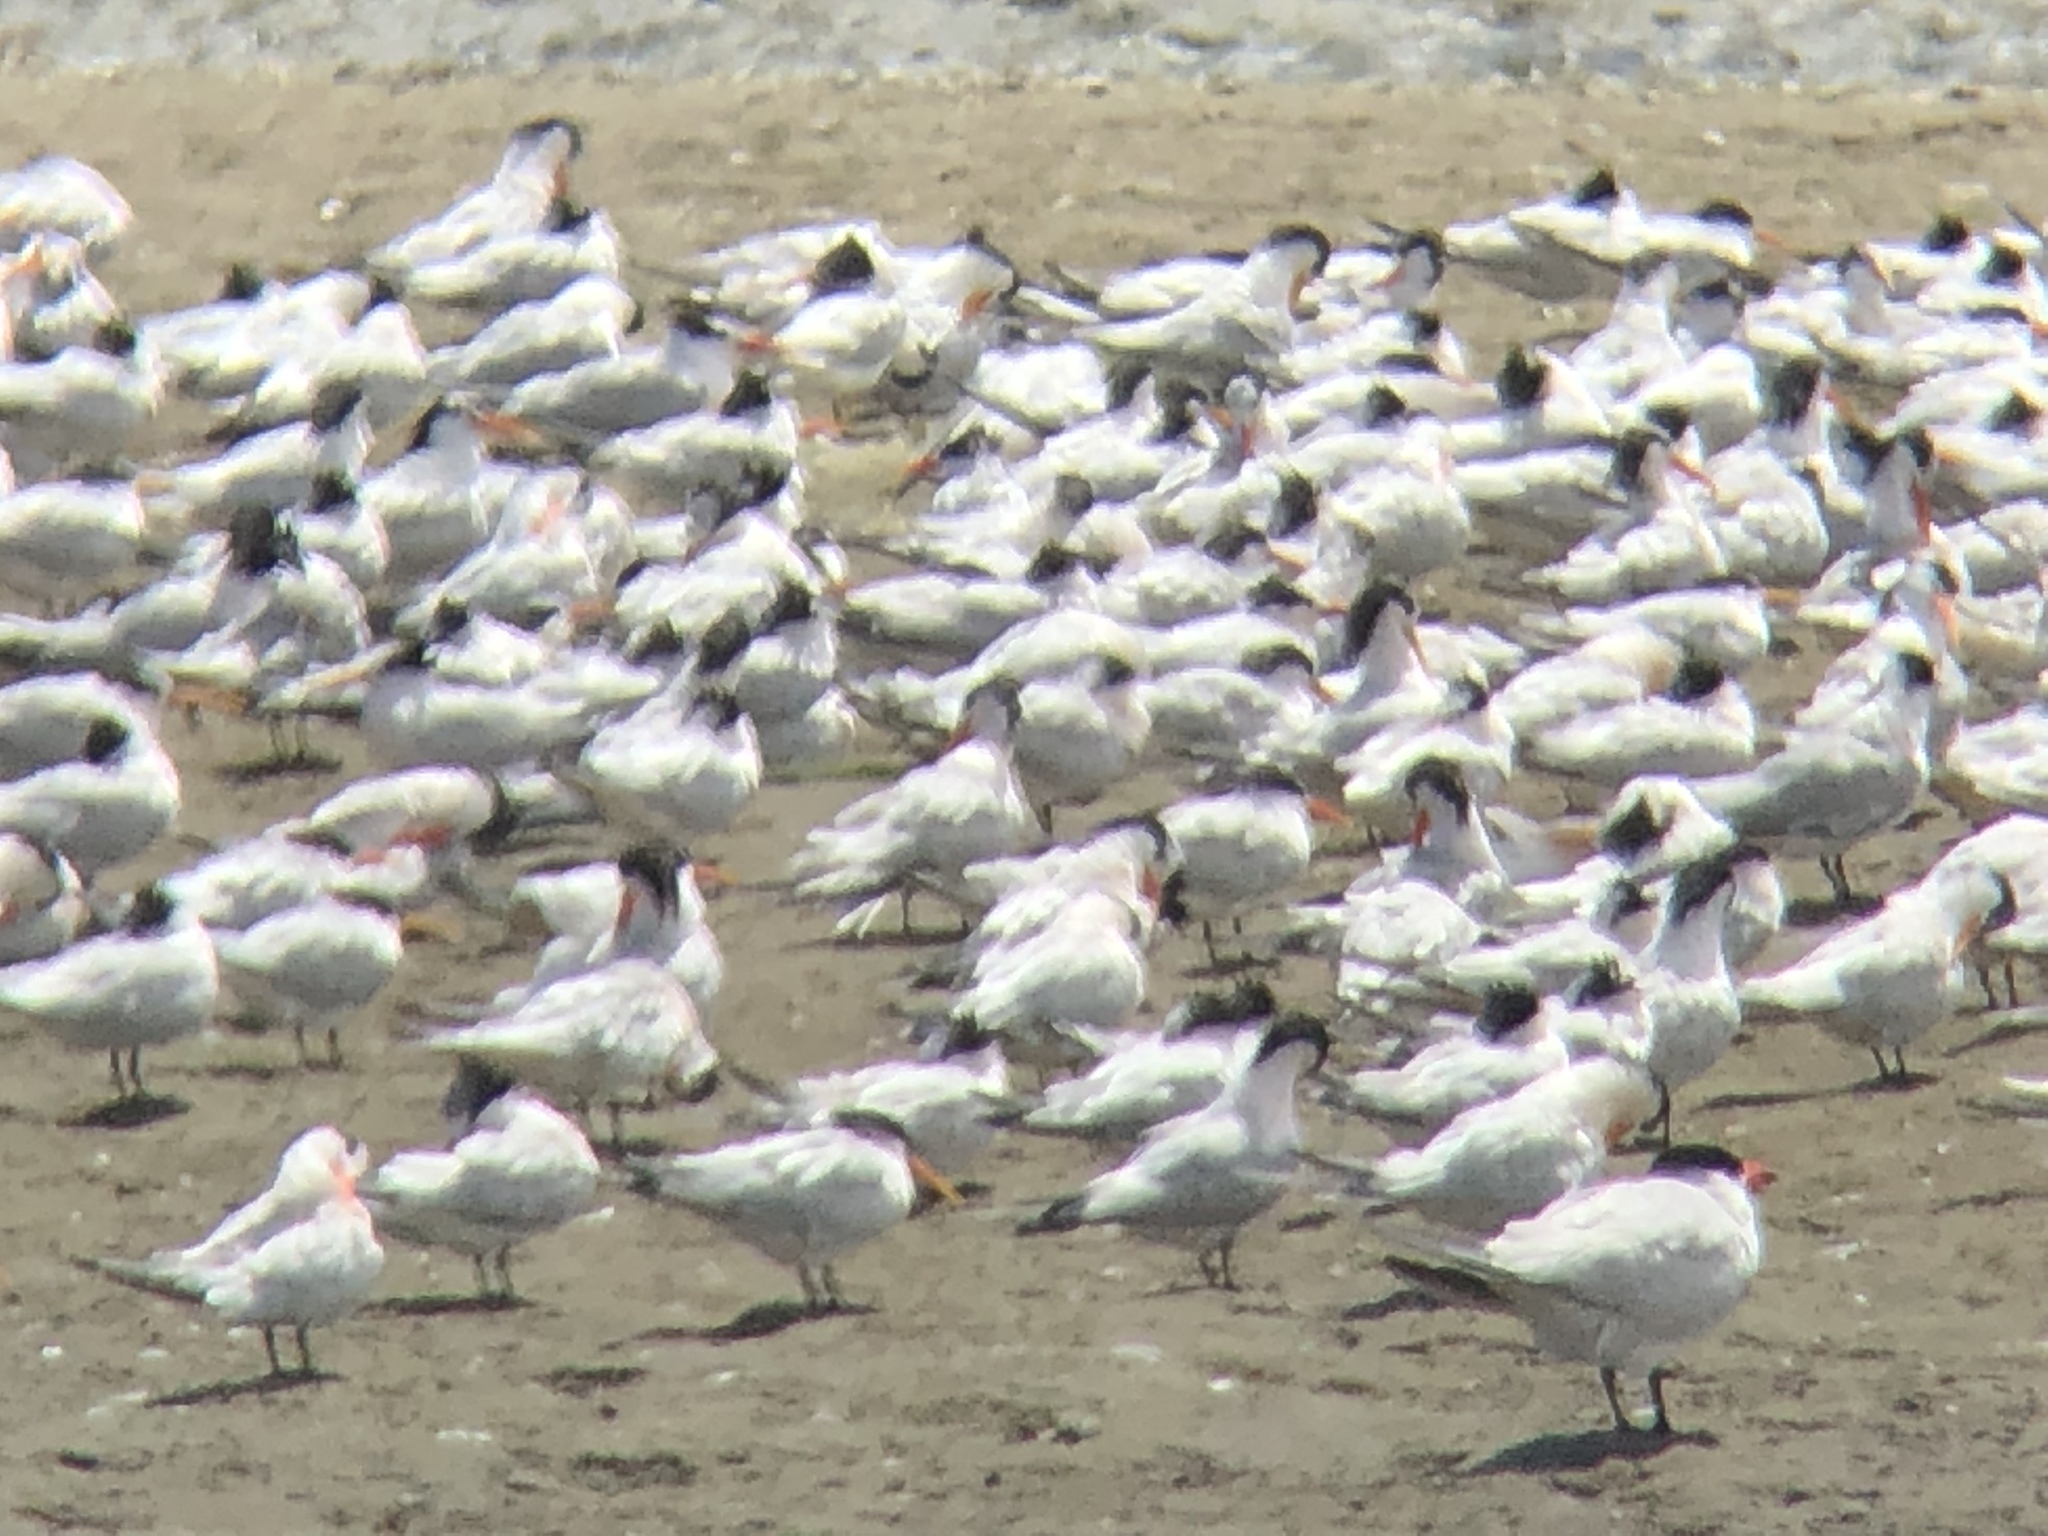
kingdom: Animalia
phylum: Chordata
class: Aves
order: Charadriiformes
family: Laridae
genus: Thalasseus
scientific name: Thalasseus elegans
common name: Elegant tern
